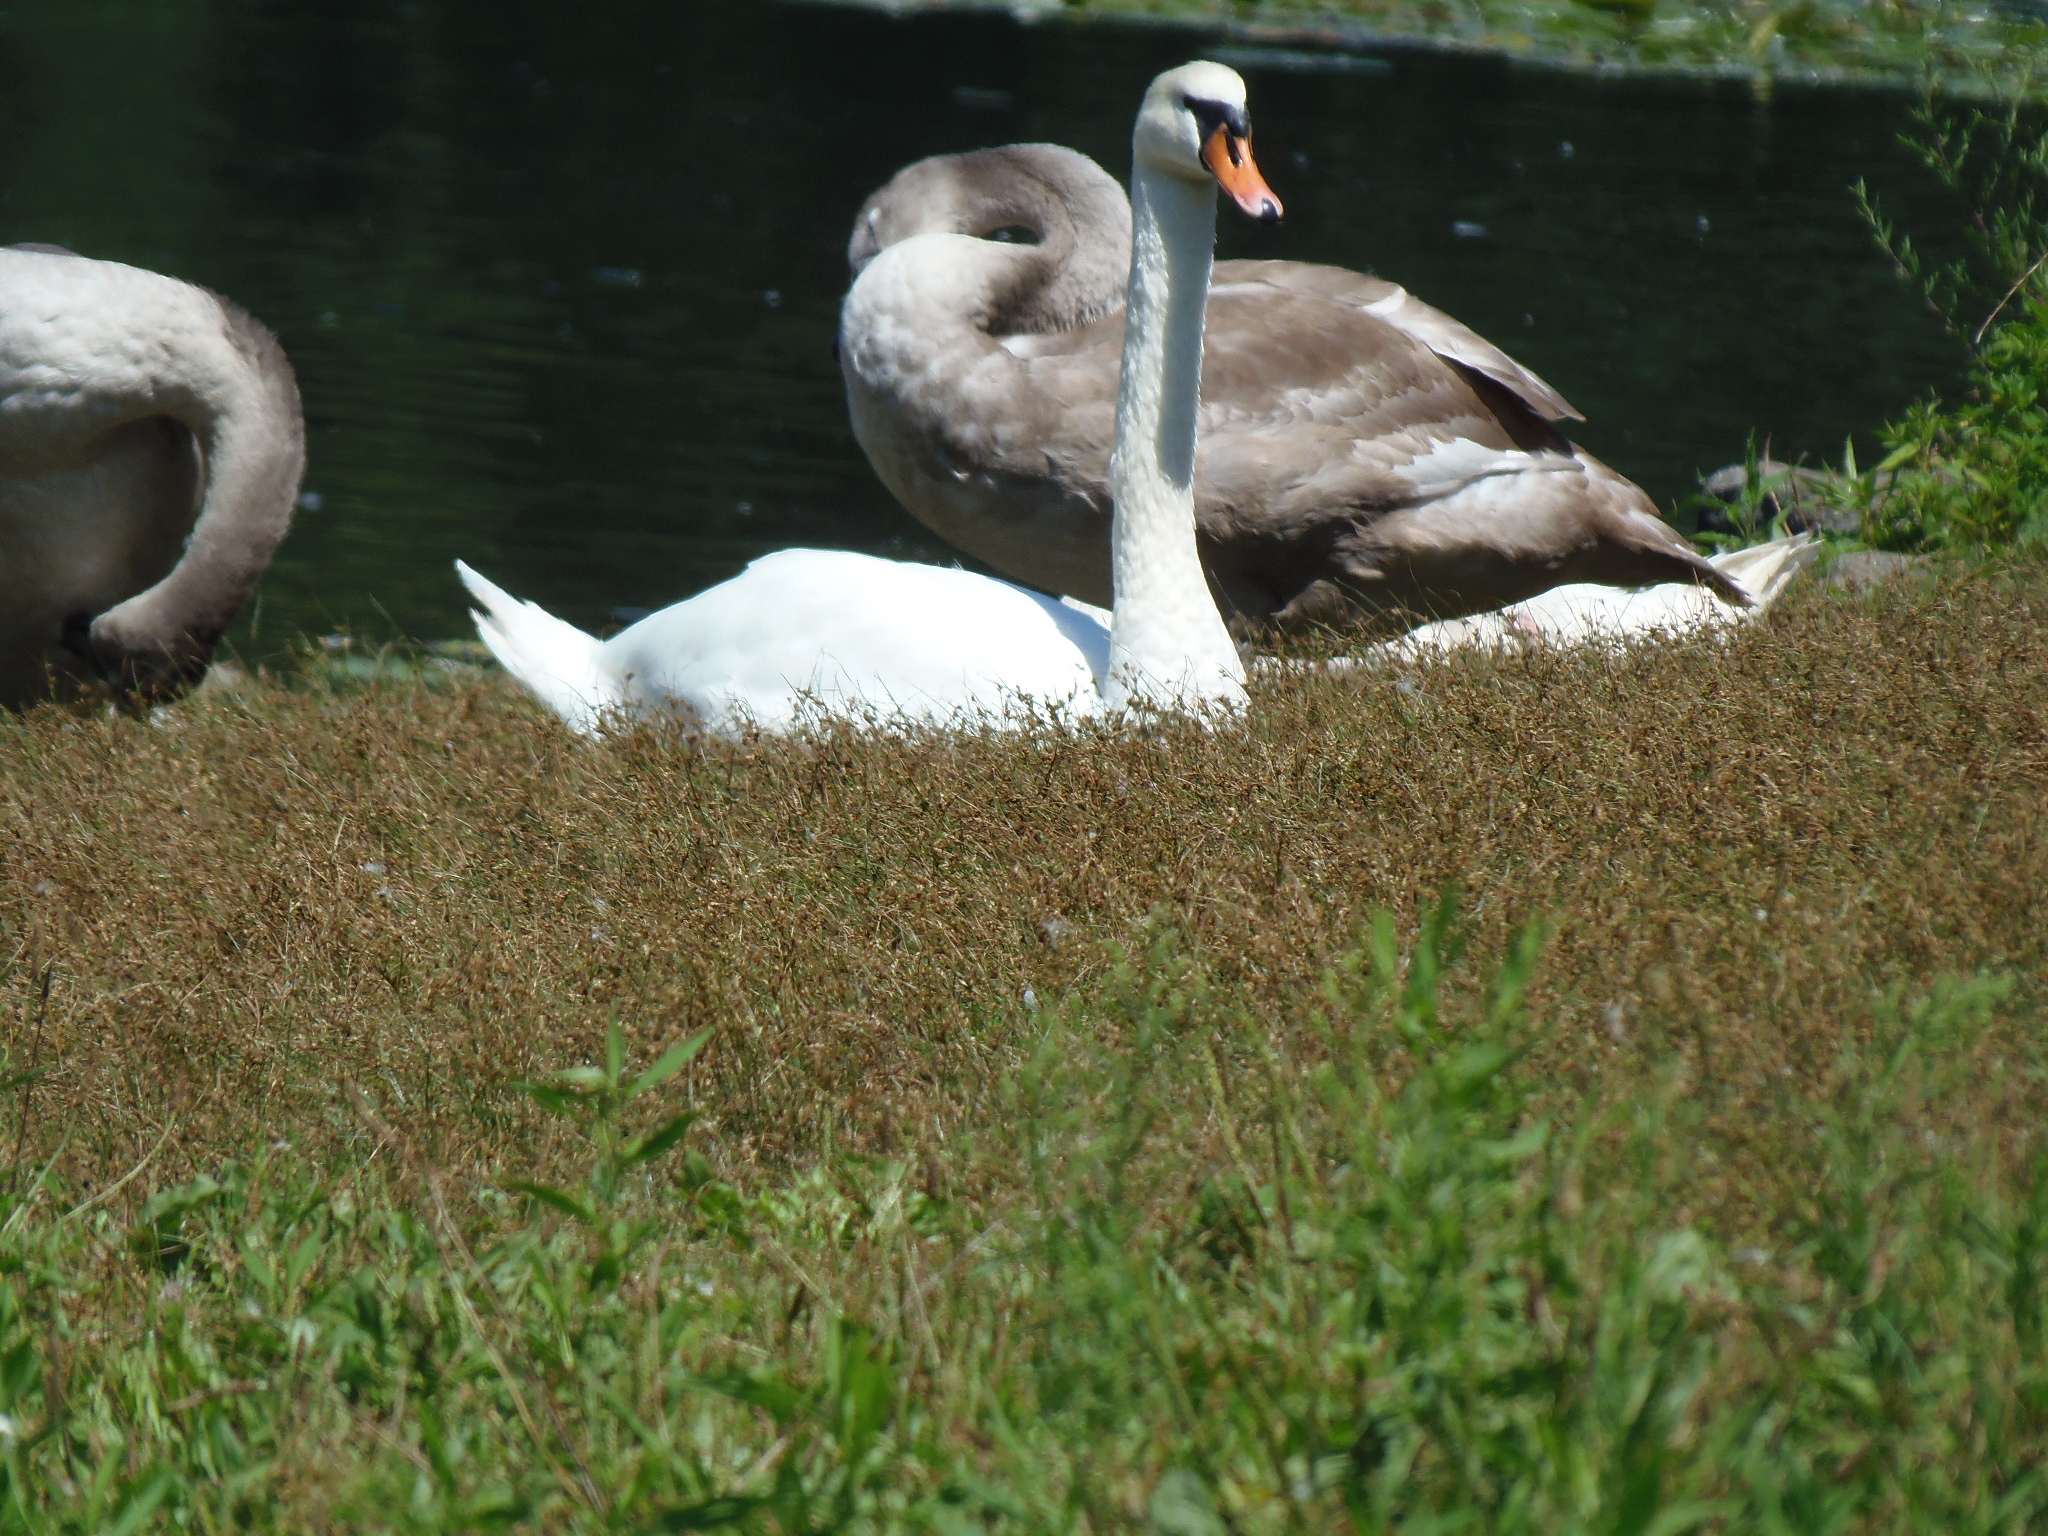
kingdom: Animalia
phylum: Chordata
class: Aves
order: Anseriformes
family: Anatidae
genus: Cygnus
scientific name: Cygnus olor
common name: Mute swan
